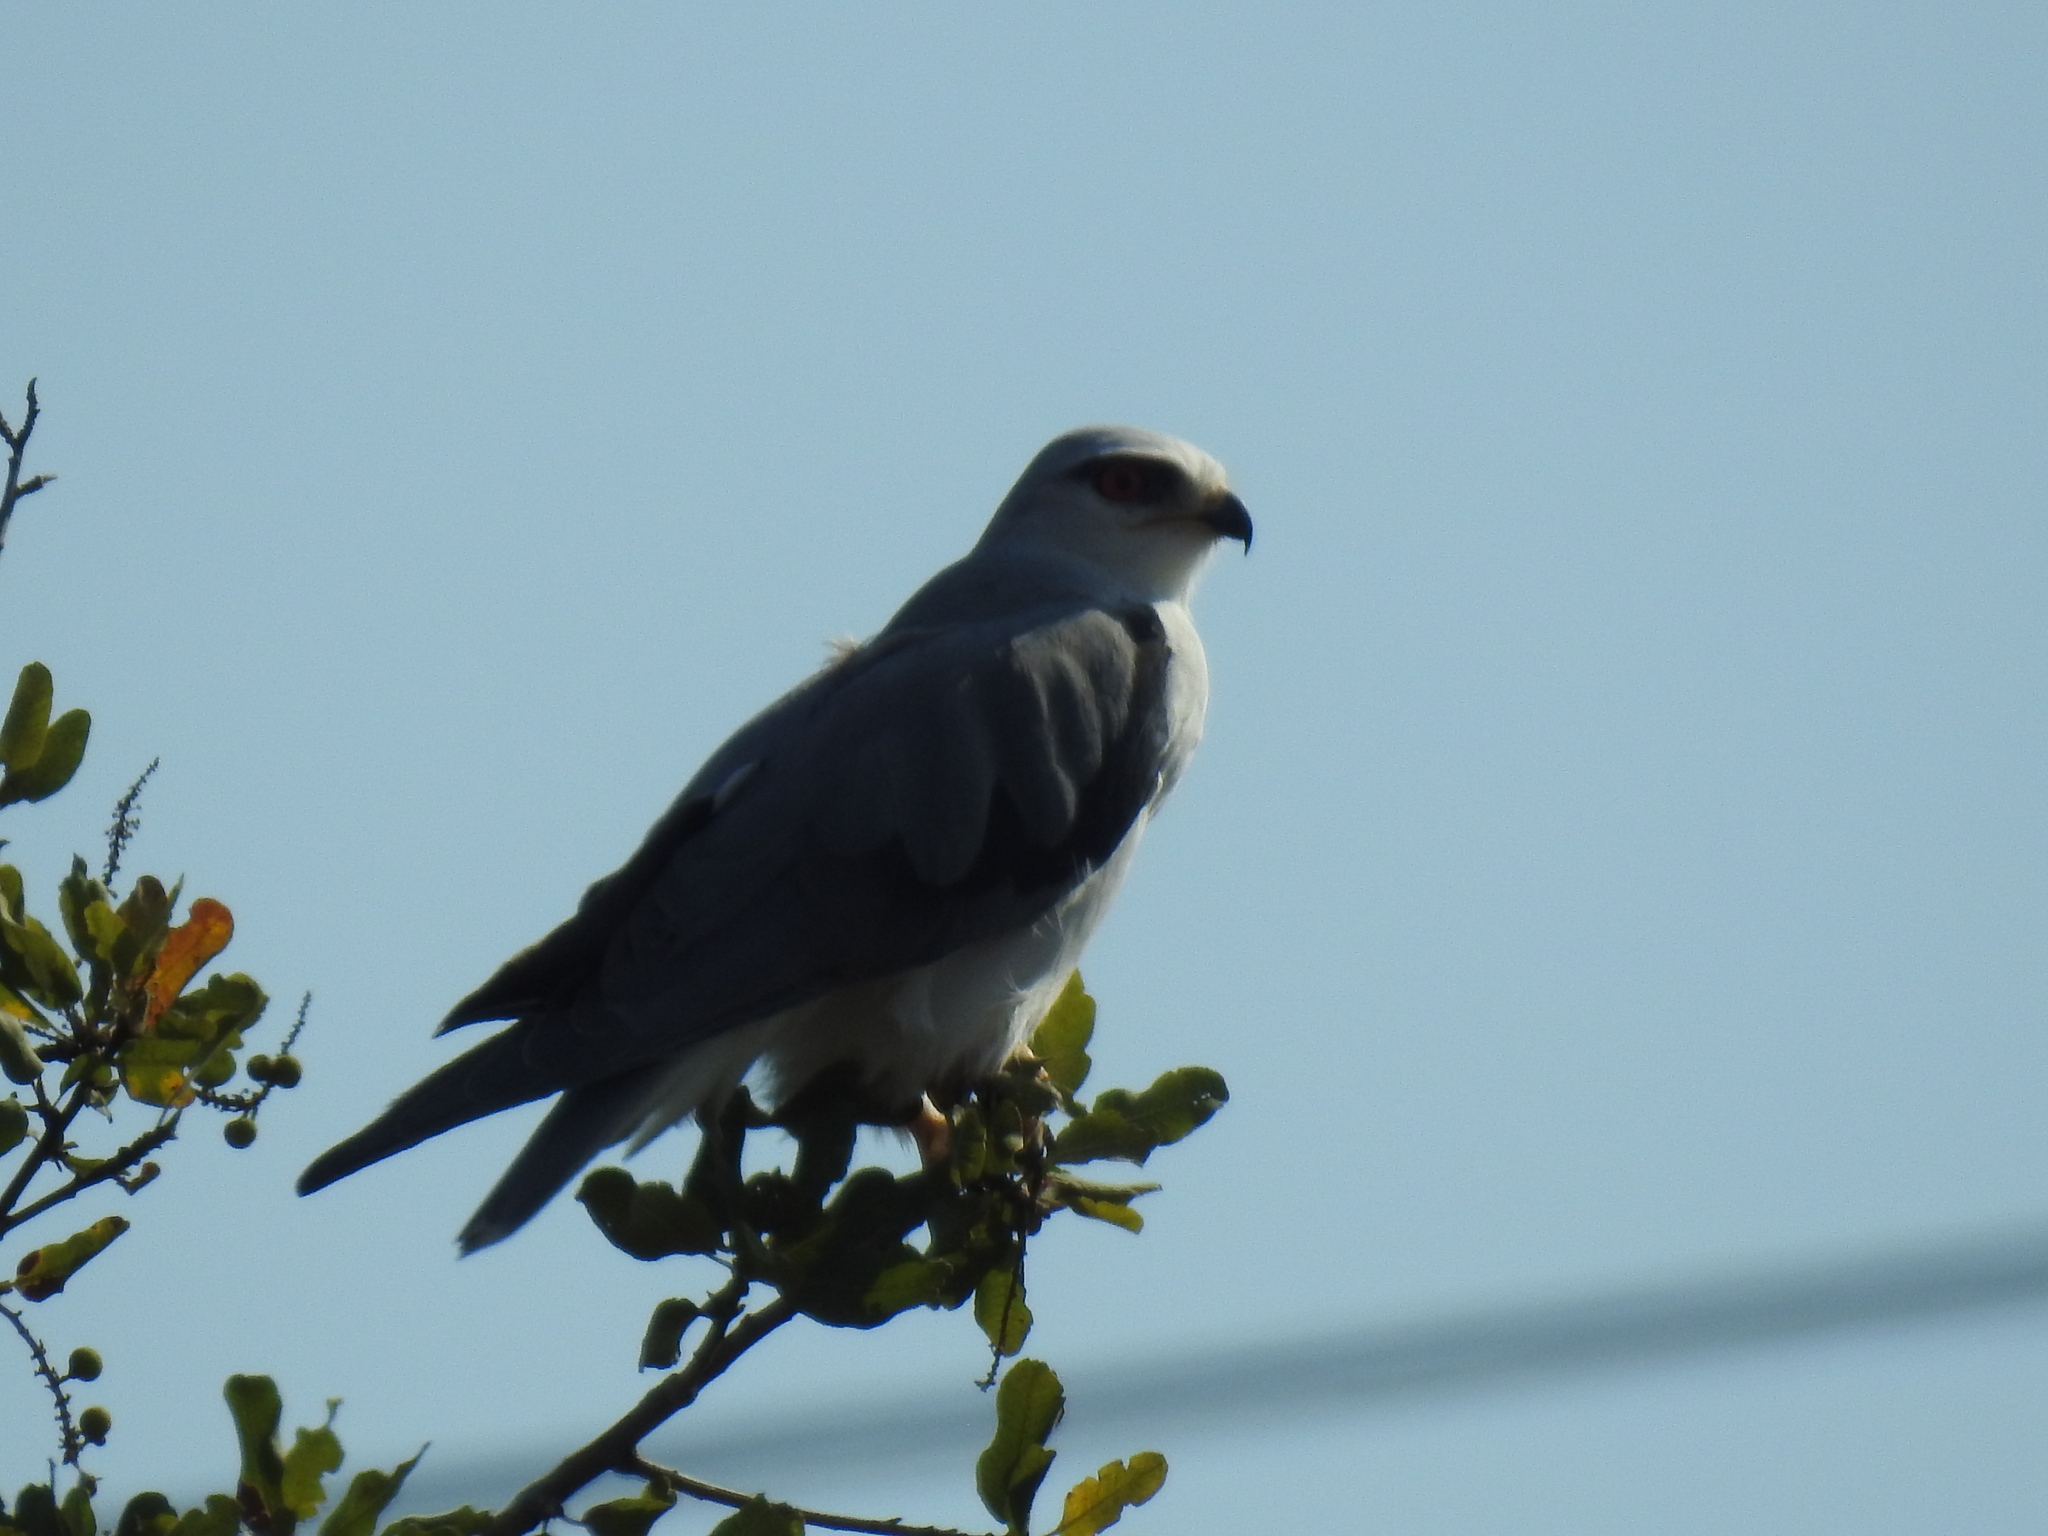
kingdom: Animalia
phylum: Chordata
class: Aves
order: Accipitriformes
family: Accipitridae
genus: Elanus
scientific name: Elanus caeruleus
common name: Black-winged kite
